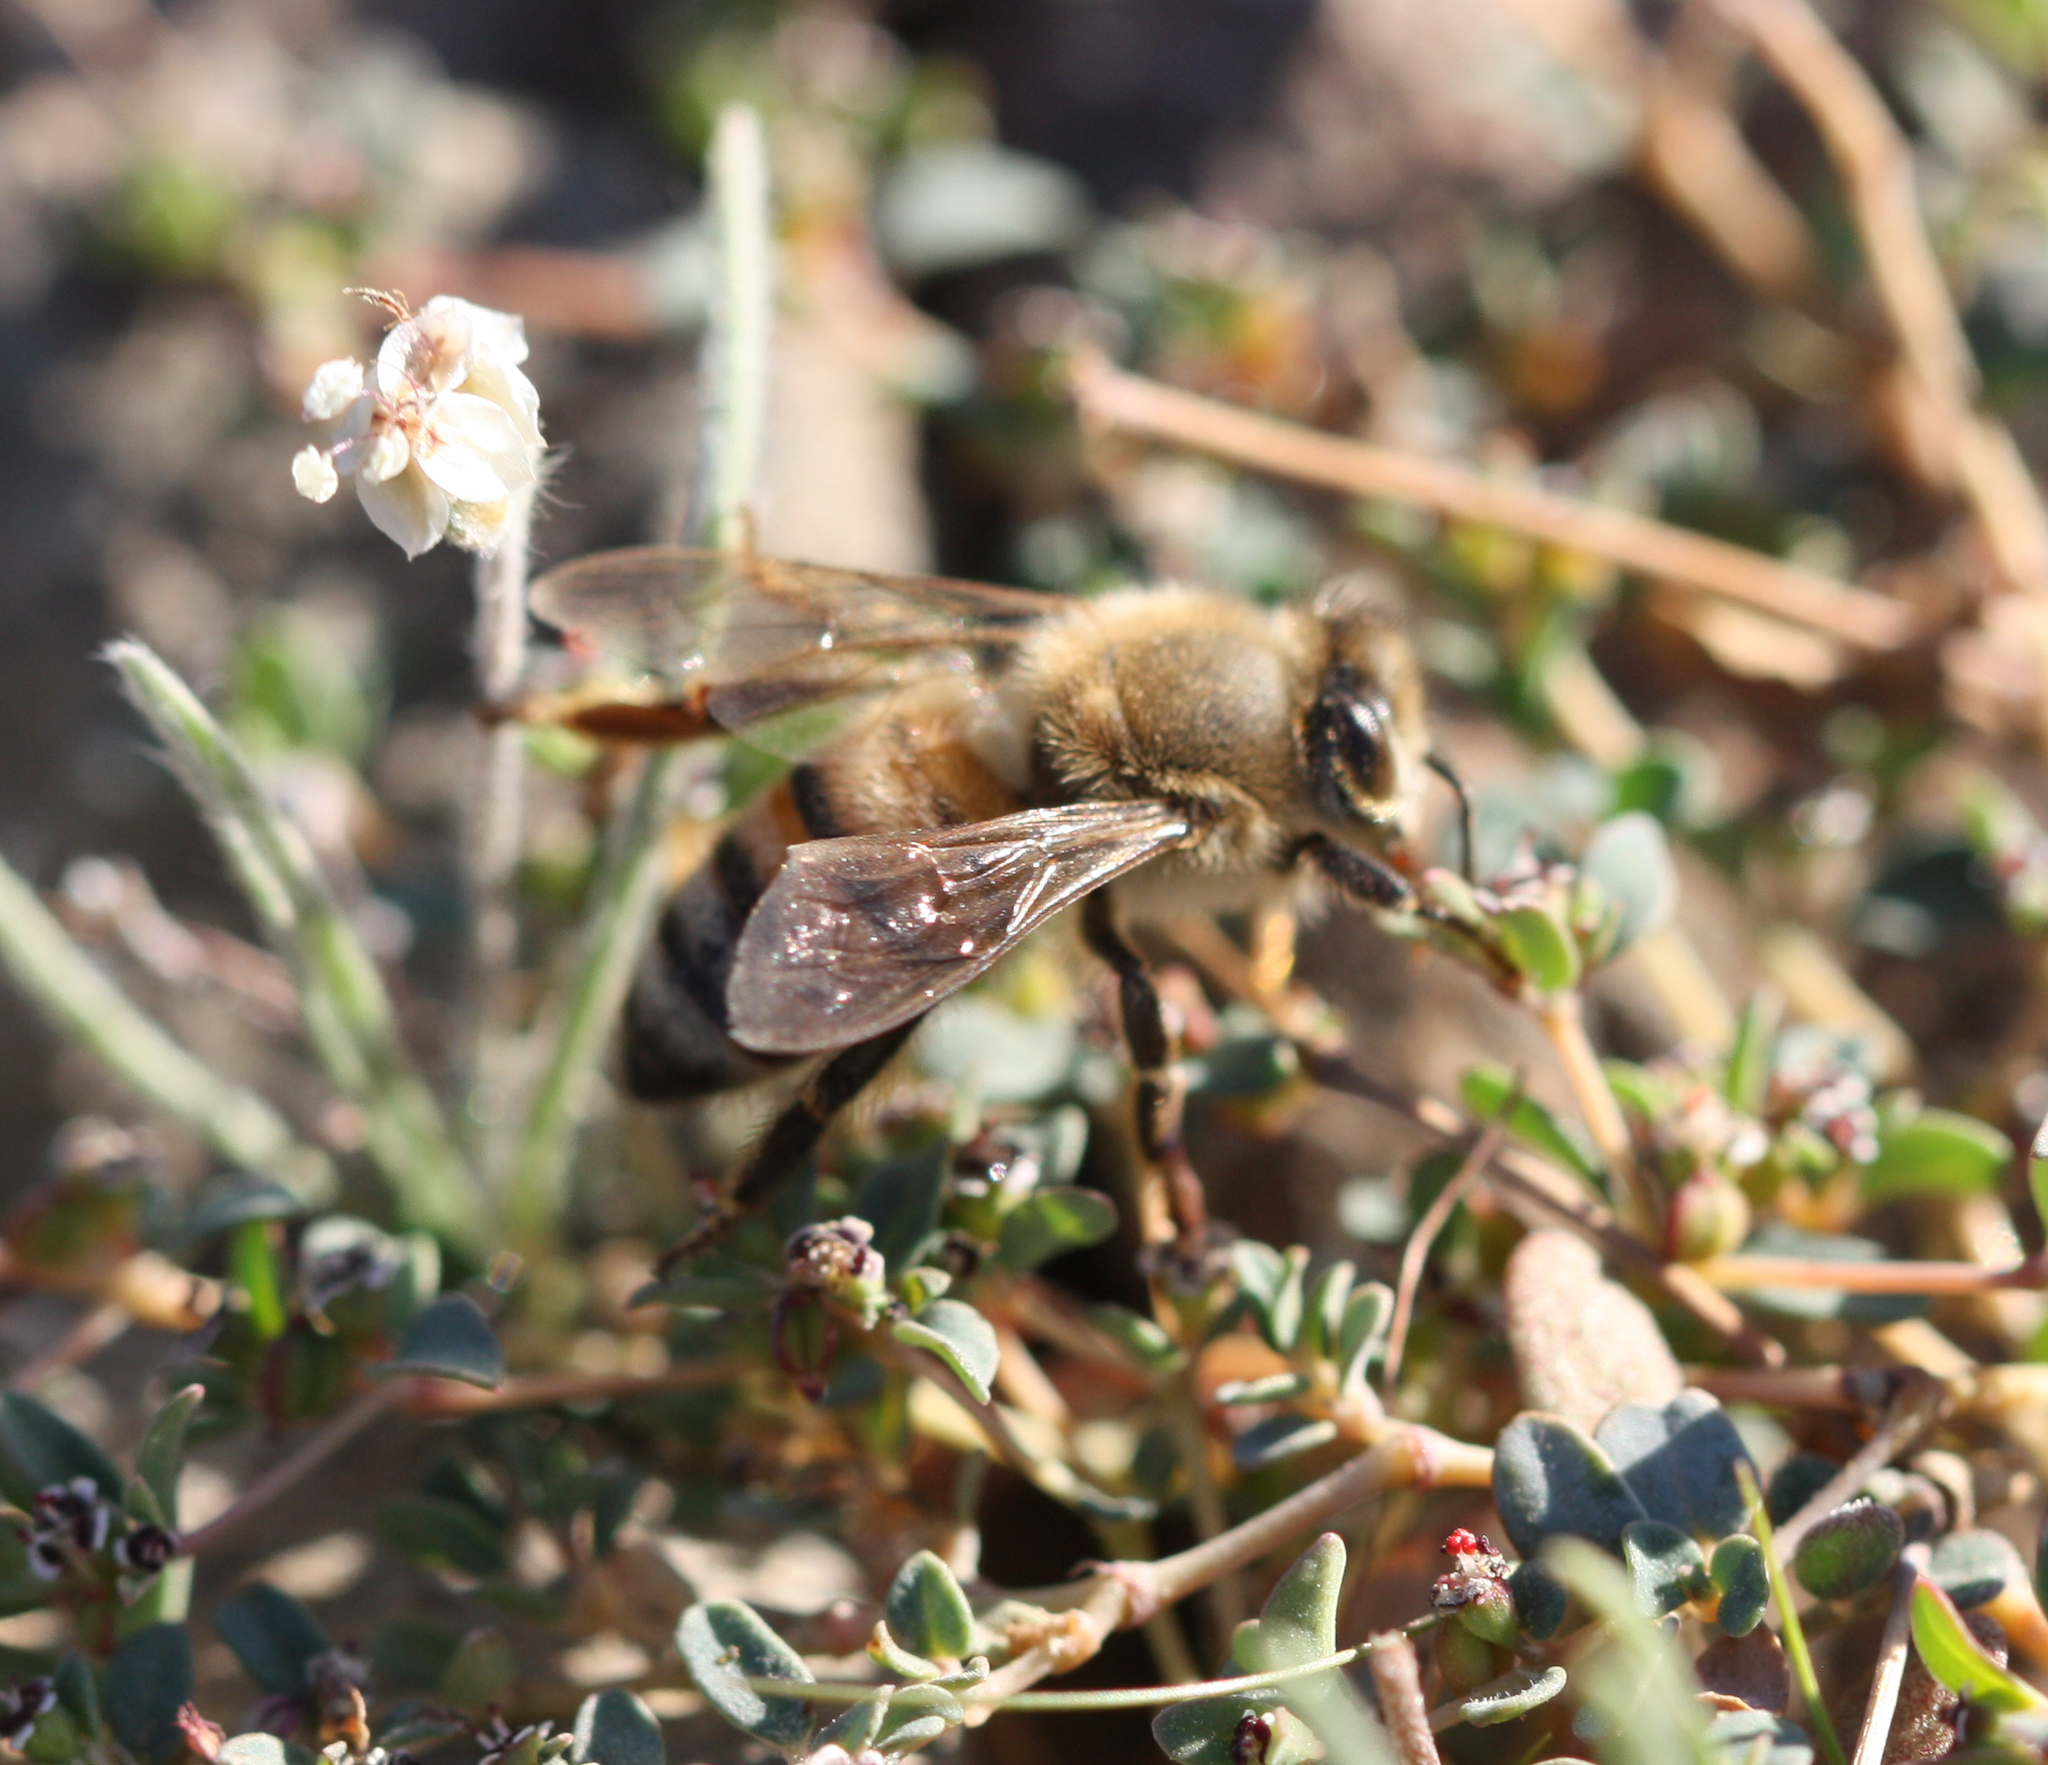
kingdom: Animalia
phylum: Arthropoda
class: Insecta
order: Hymenoptera
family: Apidae
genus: Apis
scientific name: Apis mellifera
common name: Honey bee
